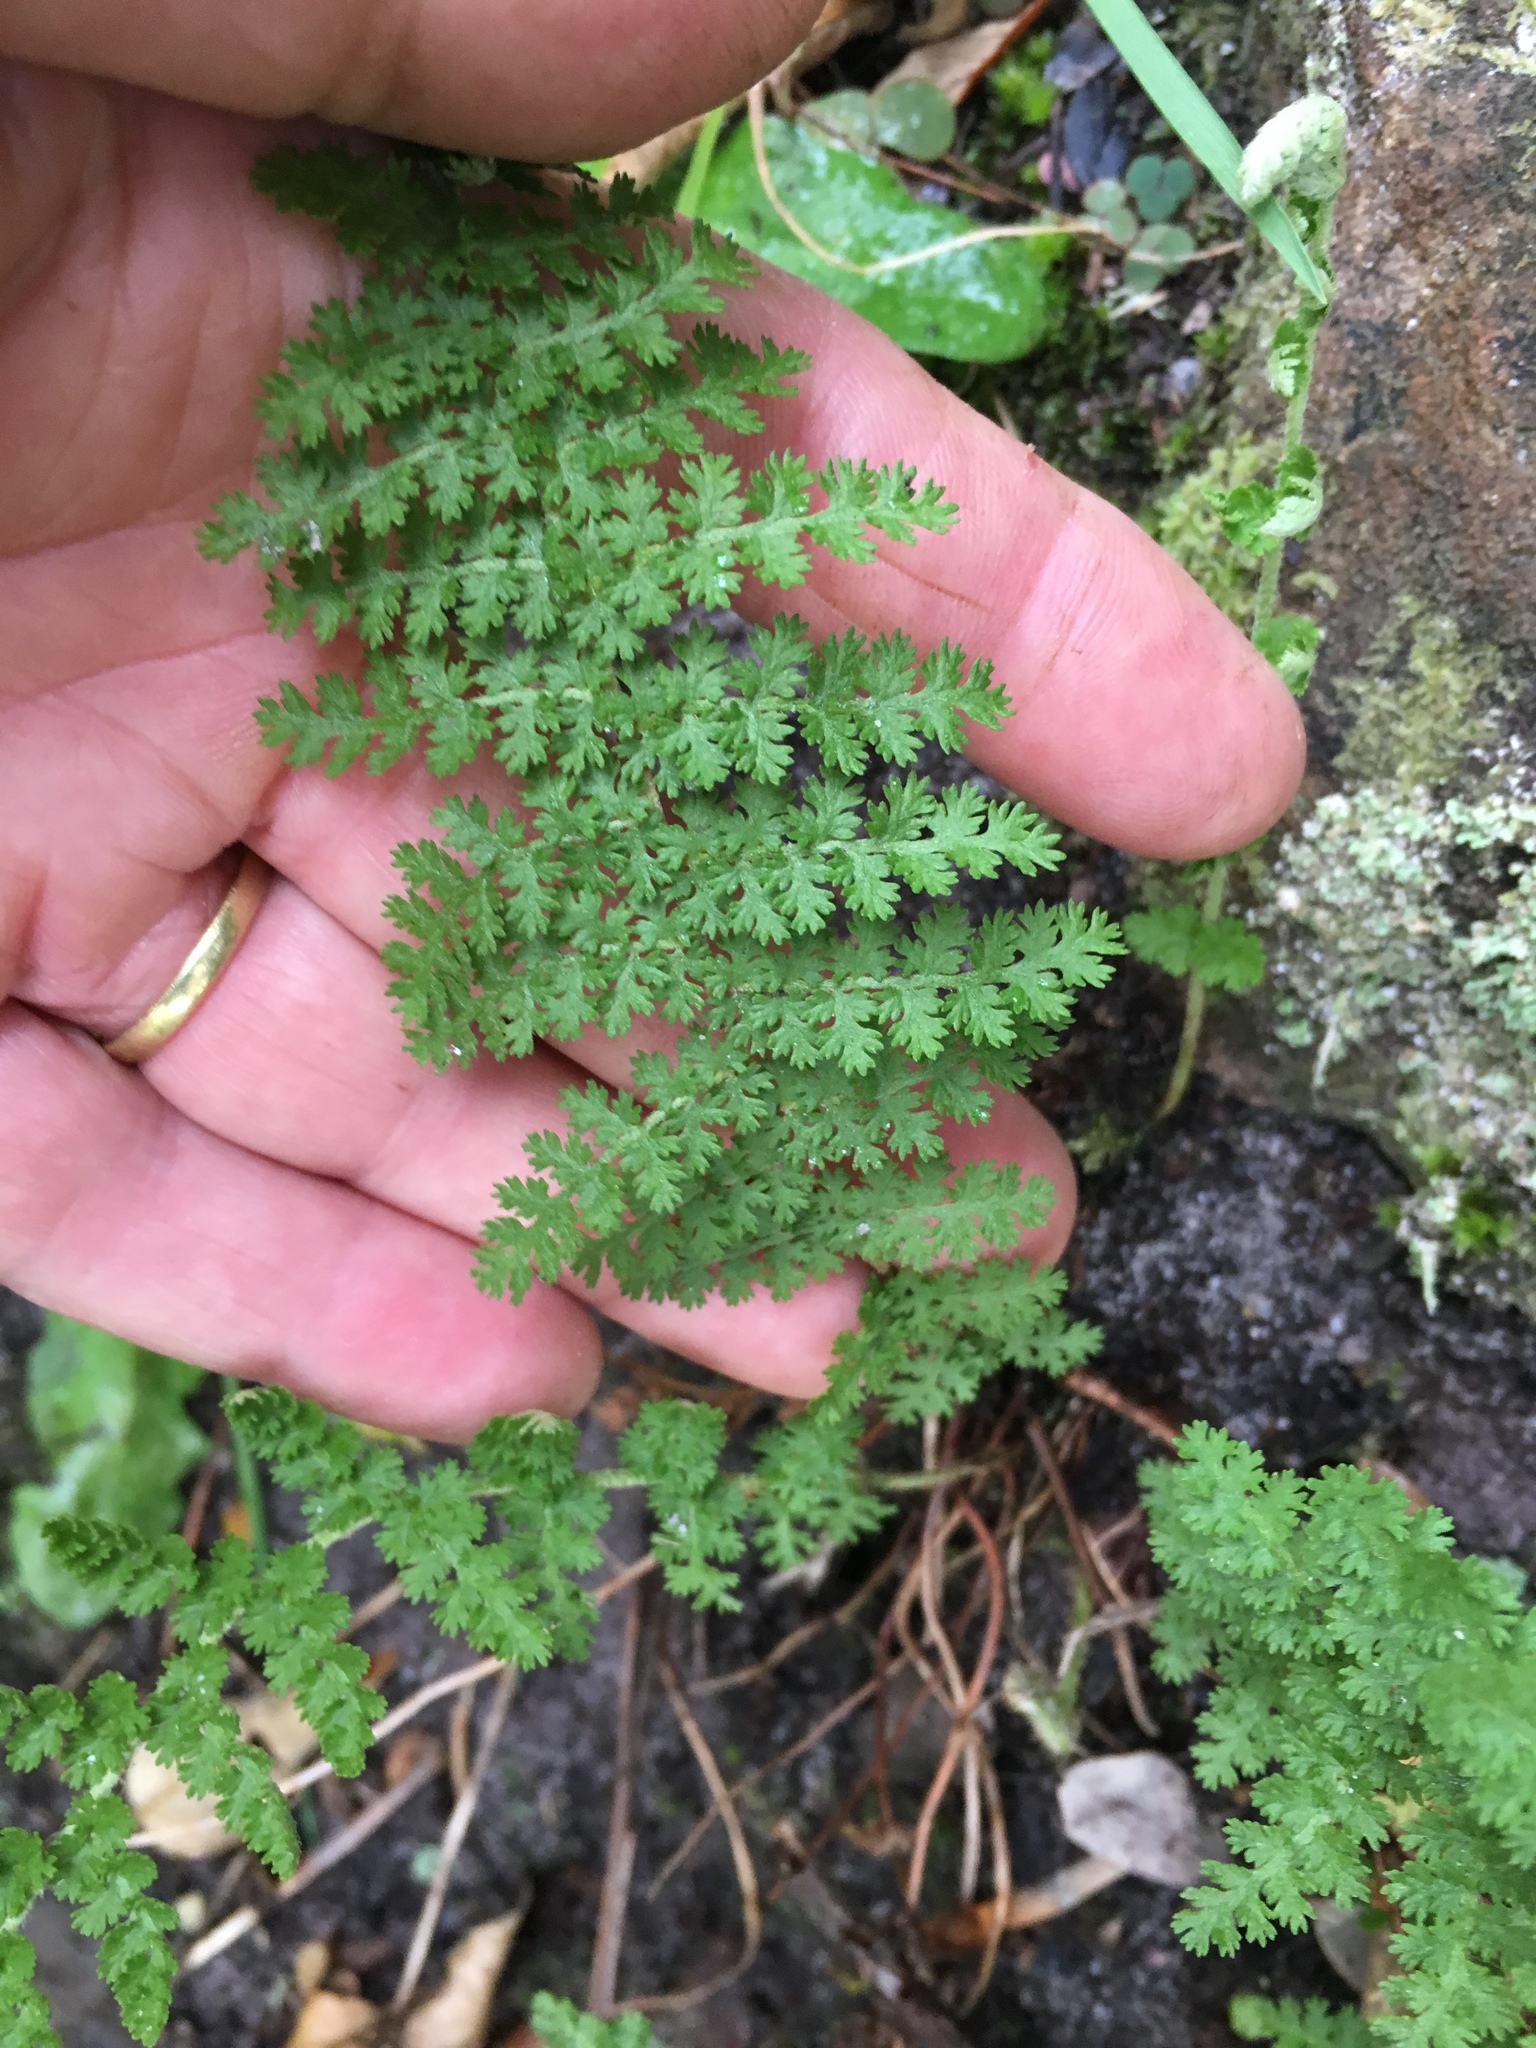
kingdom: Plantae
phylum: Tracheophyta
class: Polypodiopsida
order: Schizaeales
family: Anemiaceae
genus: Anemia
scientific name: Anemia caffrorum
